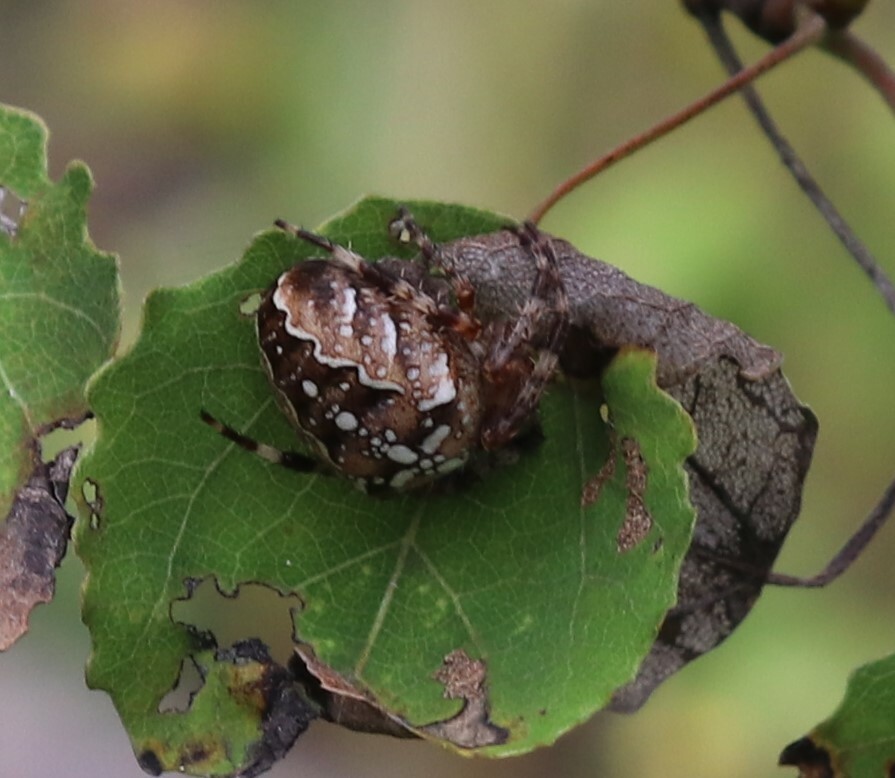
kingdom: Animalia
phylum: Arthropoda
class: Arachnida
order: Araneae
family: Araneidae
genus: Araneus
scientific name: Araneus diadematus
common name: Cross orbweaver
